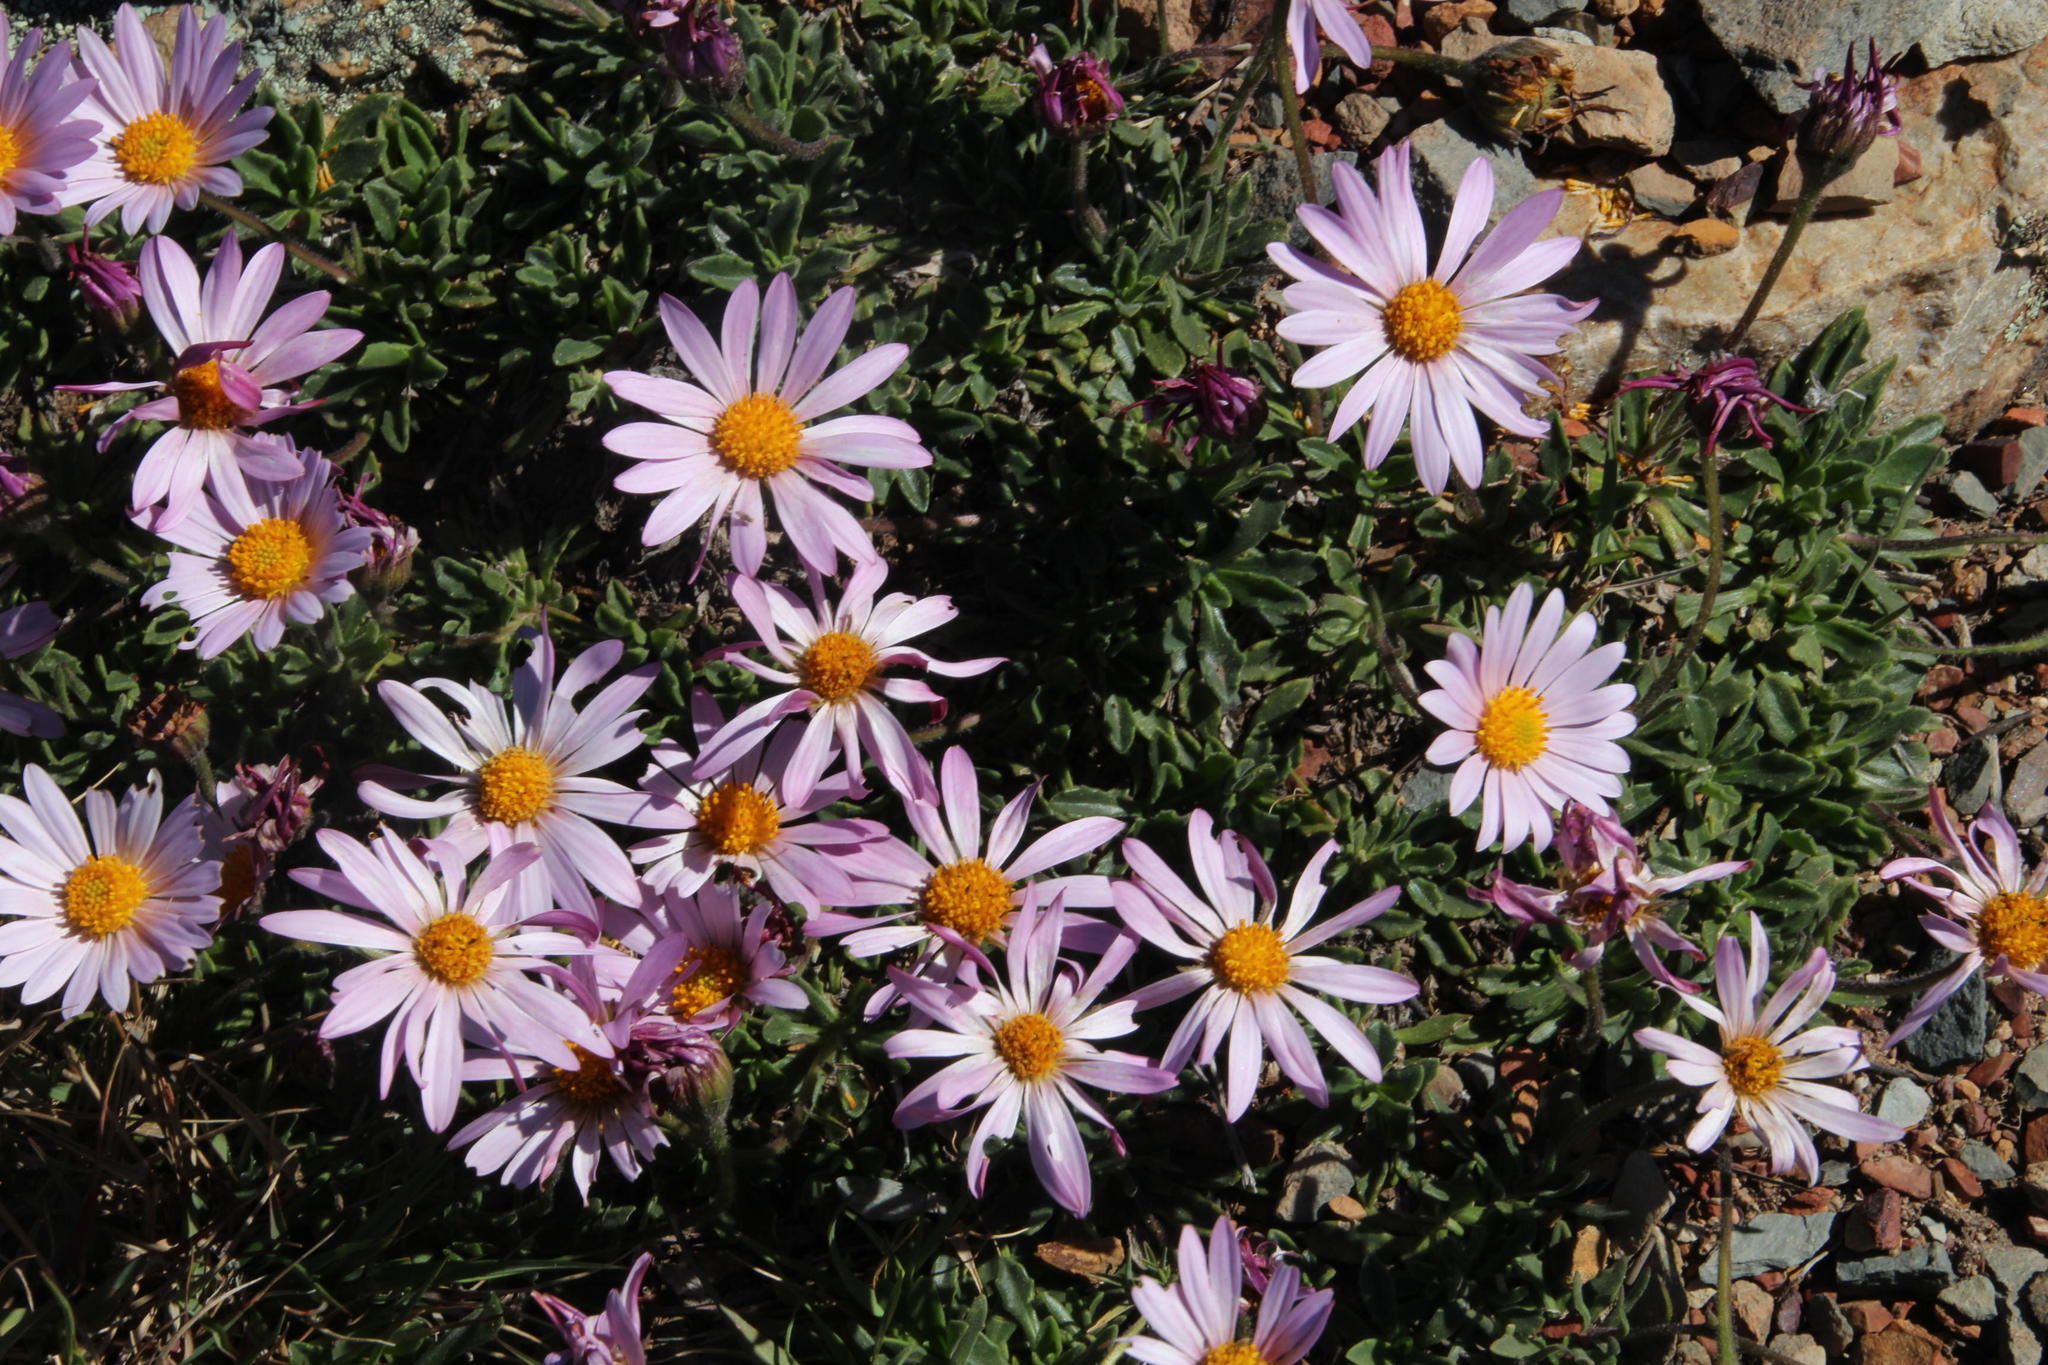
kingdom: Plantae
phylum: Tracheophyta
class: Magnoliopsida
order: Asterales
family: Asteraceae
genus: Dimorphotheca
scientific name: Dimorphotheca venusta
